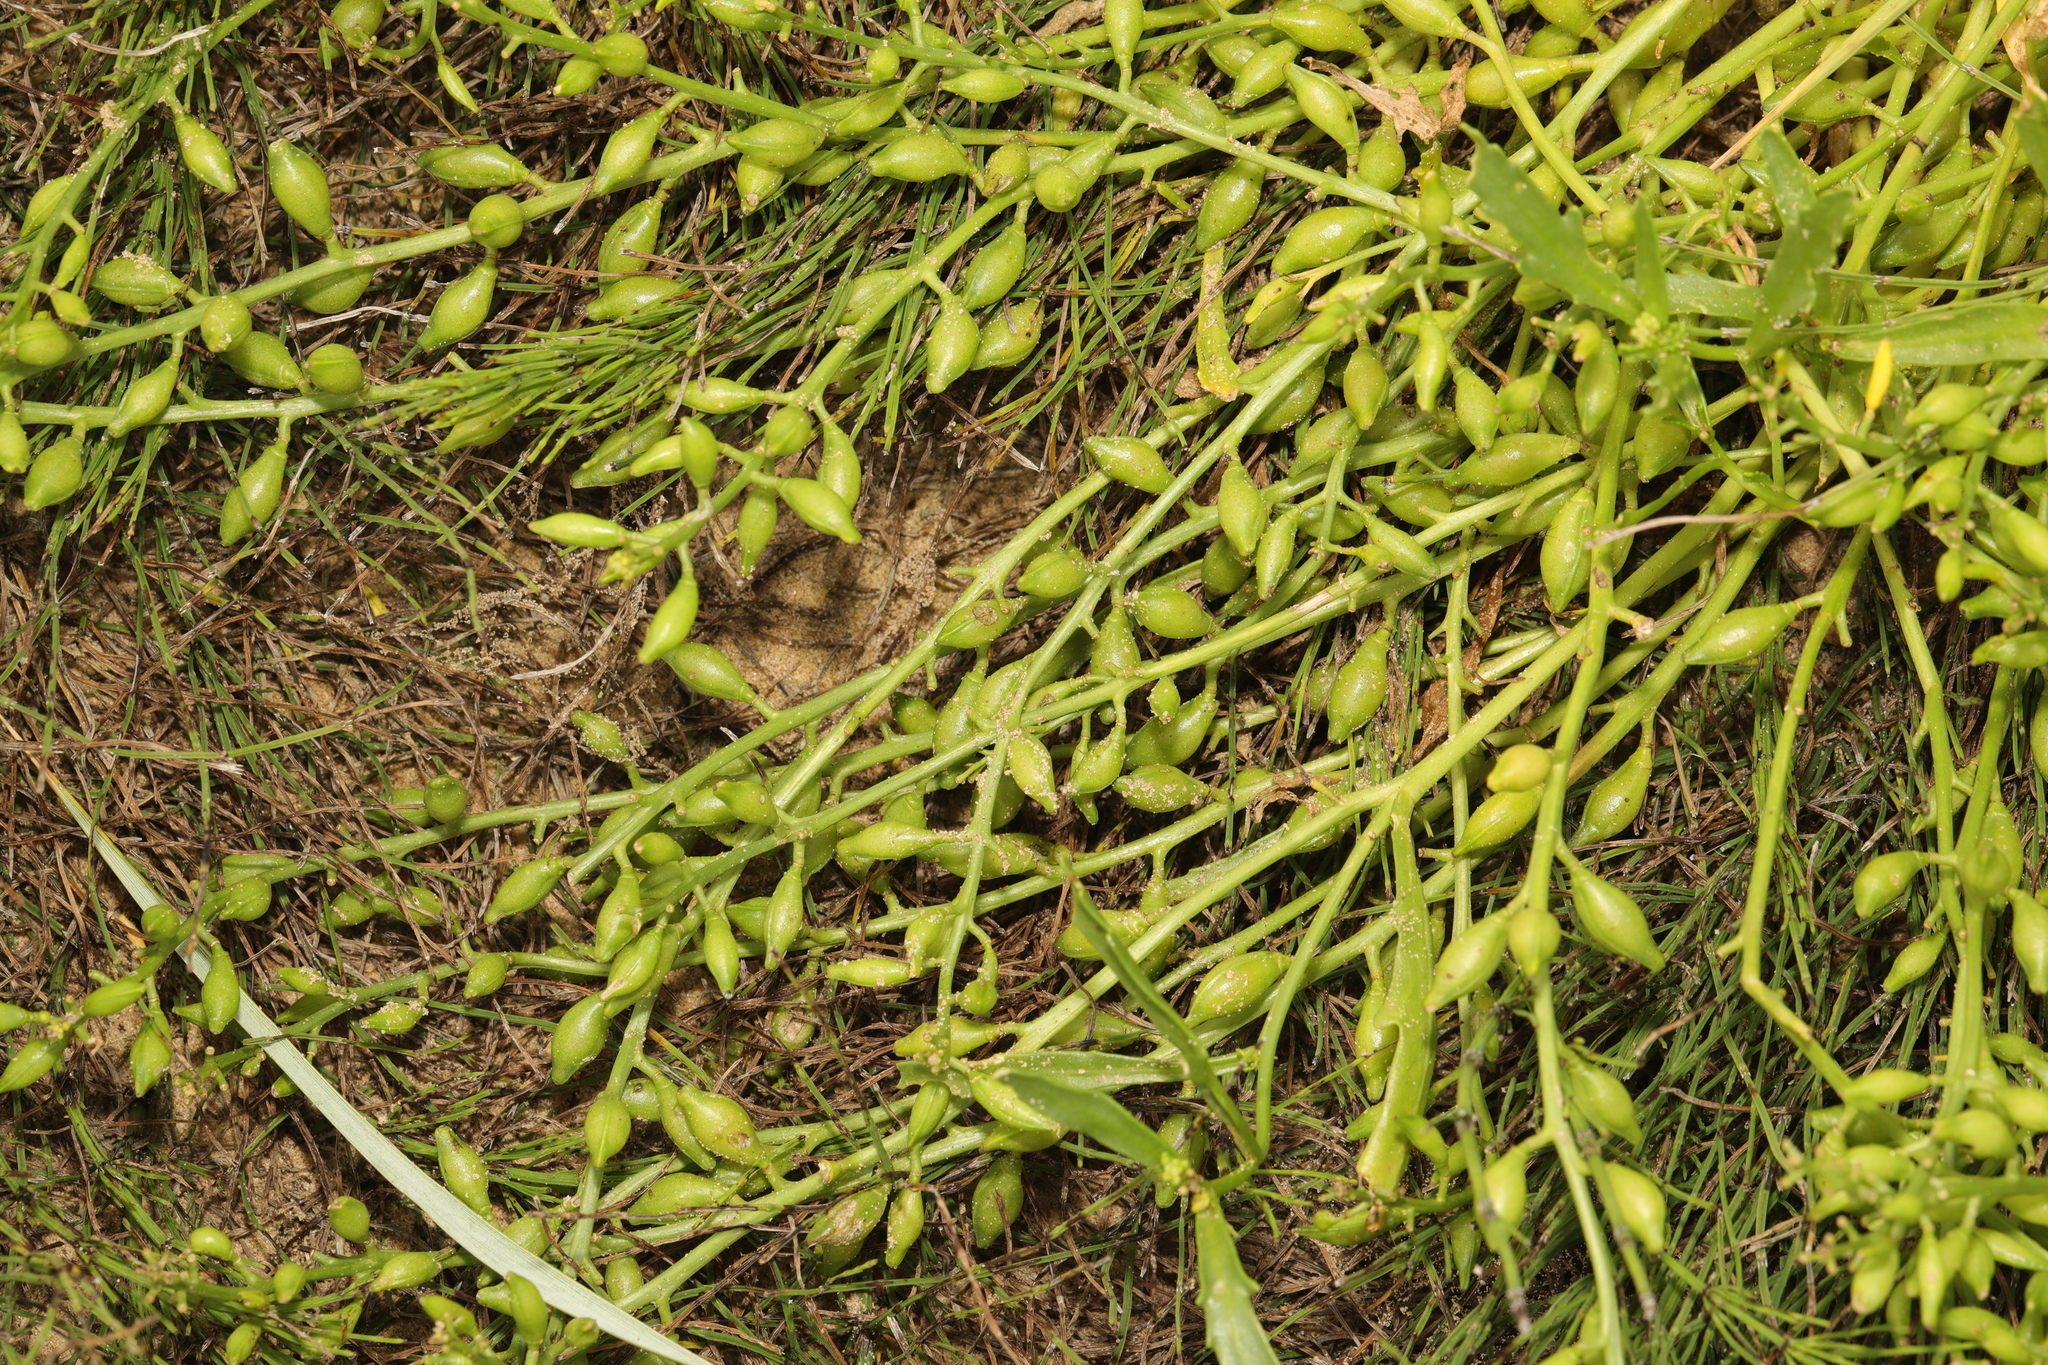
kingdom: Plantae
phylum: Tracheophyta
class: Magnoliopsida
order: Brassicales
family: Brassicaceae
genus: Cakile
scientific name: Cakile maritima
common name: Sea rocket
